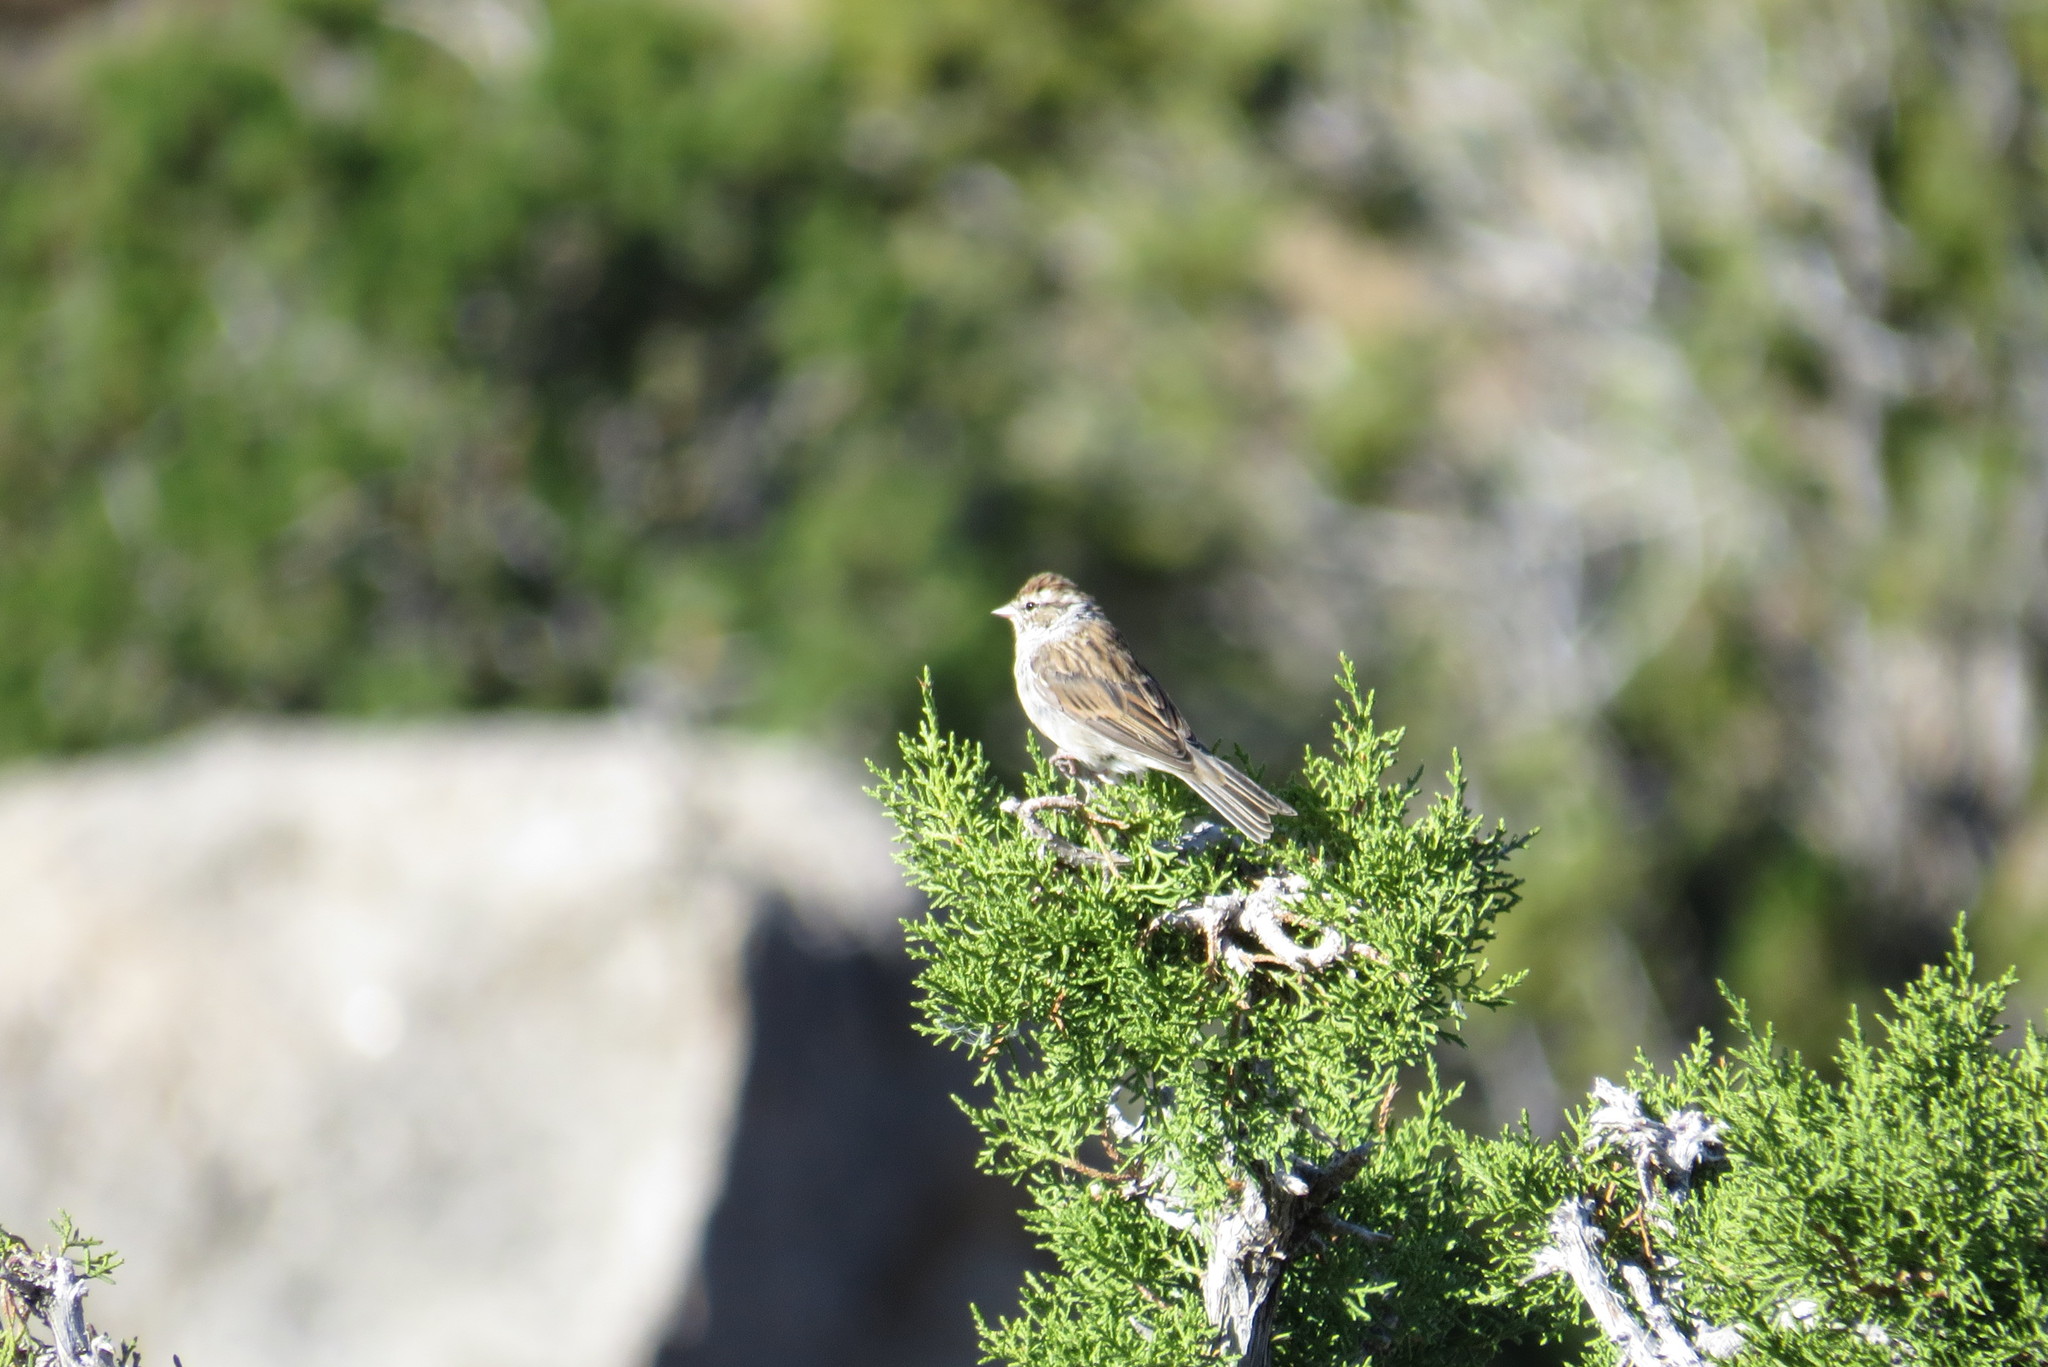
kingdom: Animalia
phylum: Chordata
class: Aves
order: Passeriformes
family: Passerellidae
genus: Spizella
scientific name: Spizella passerina
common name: Chipping sparrow
